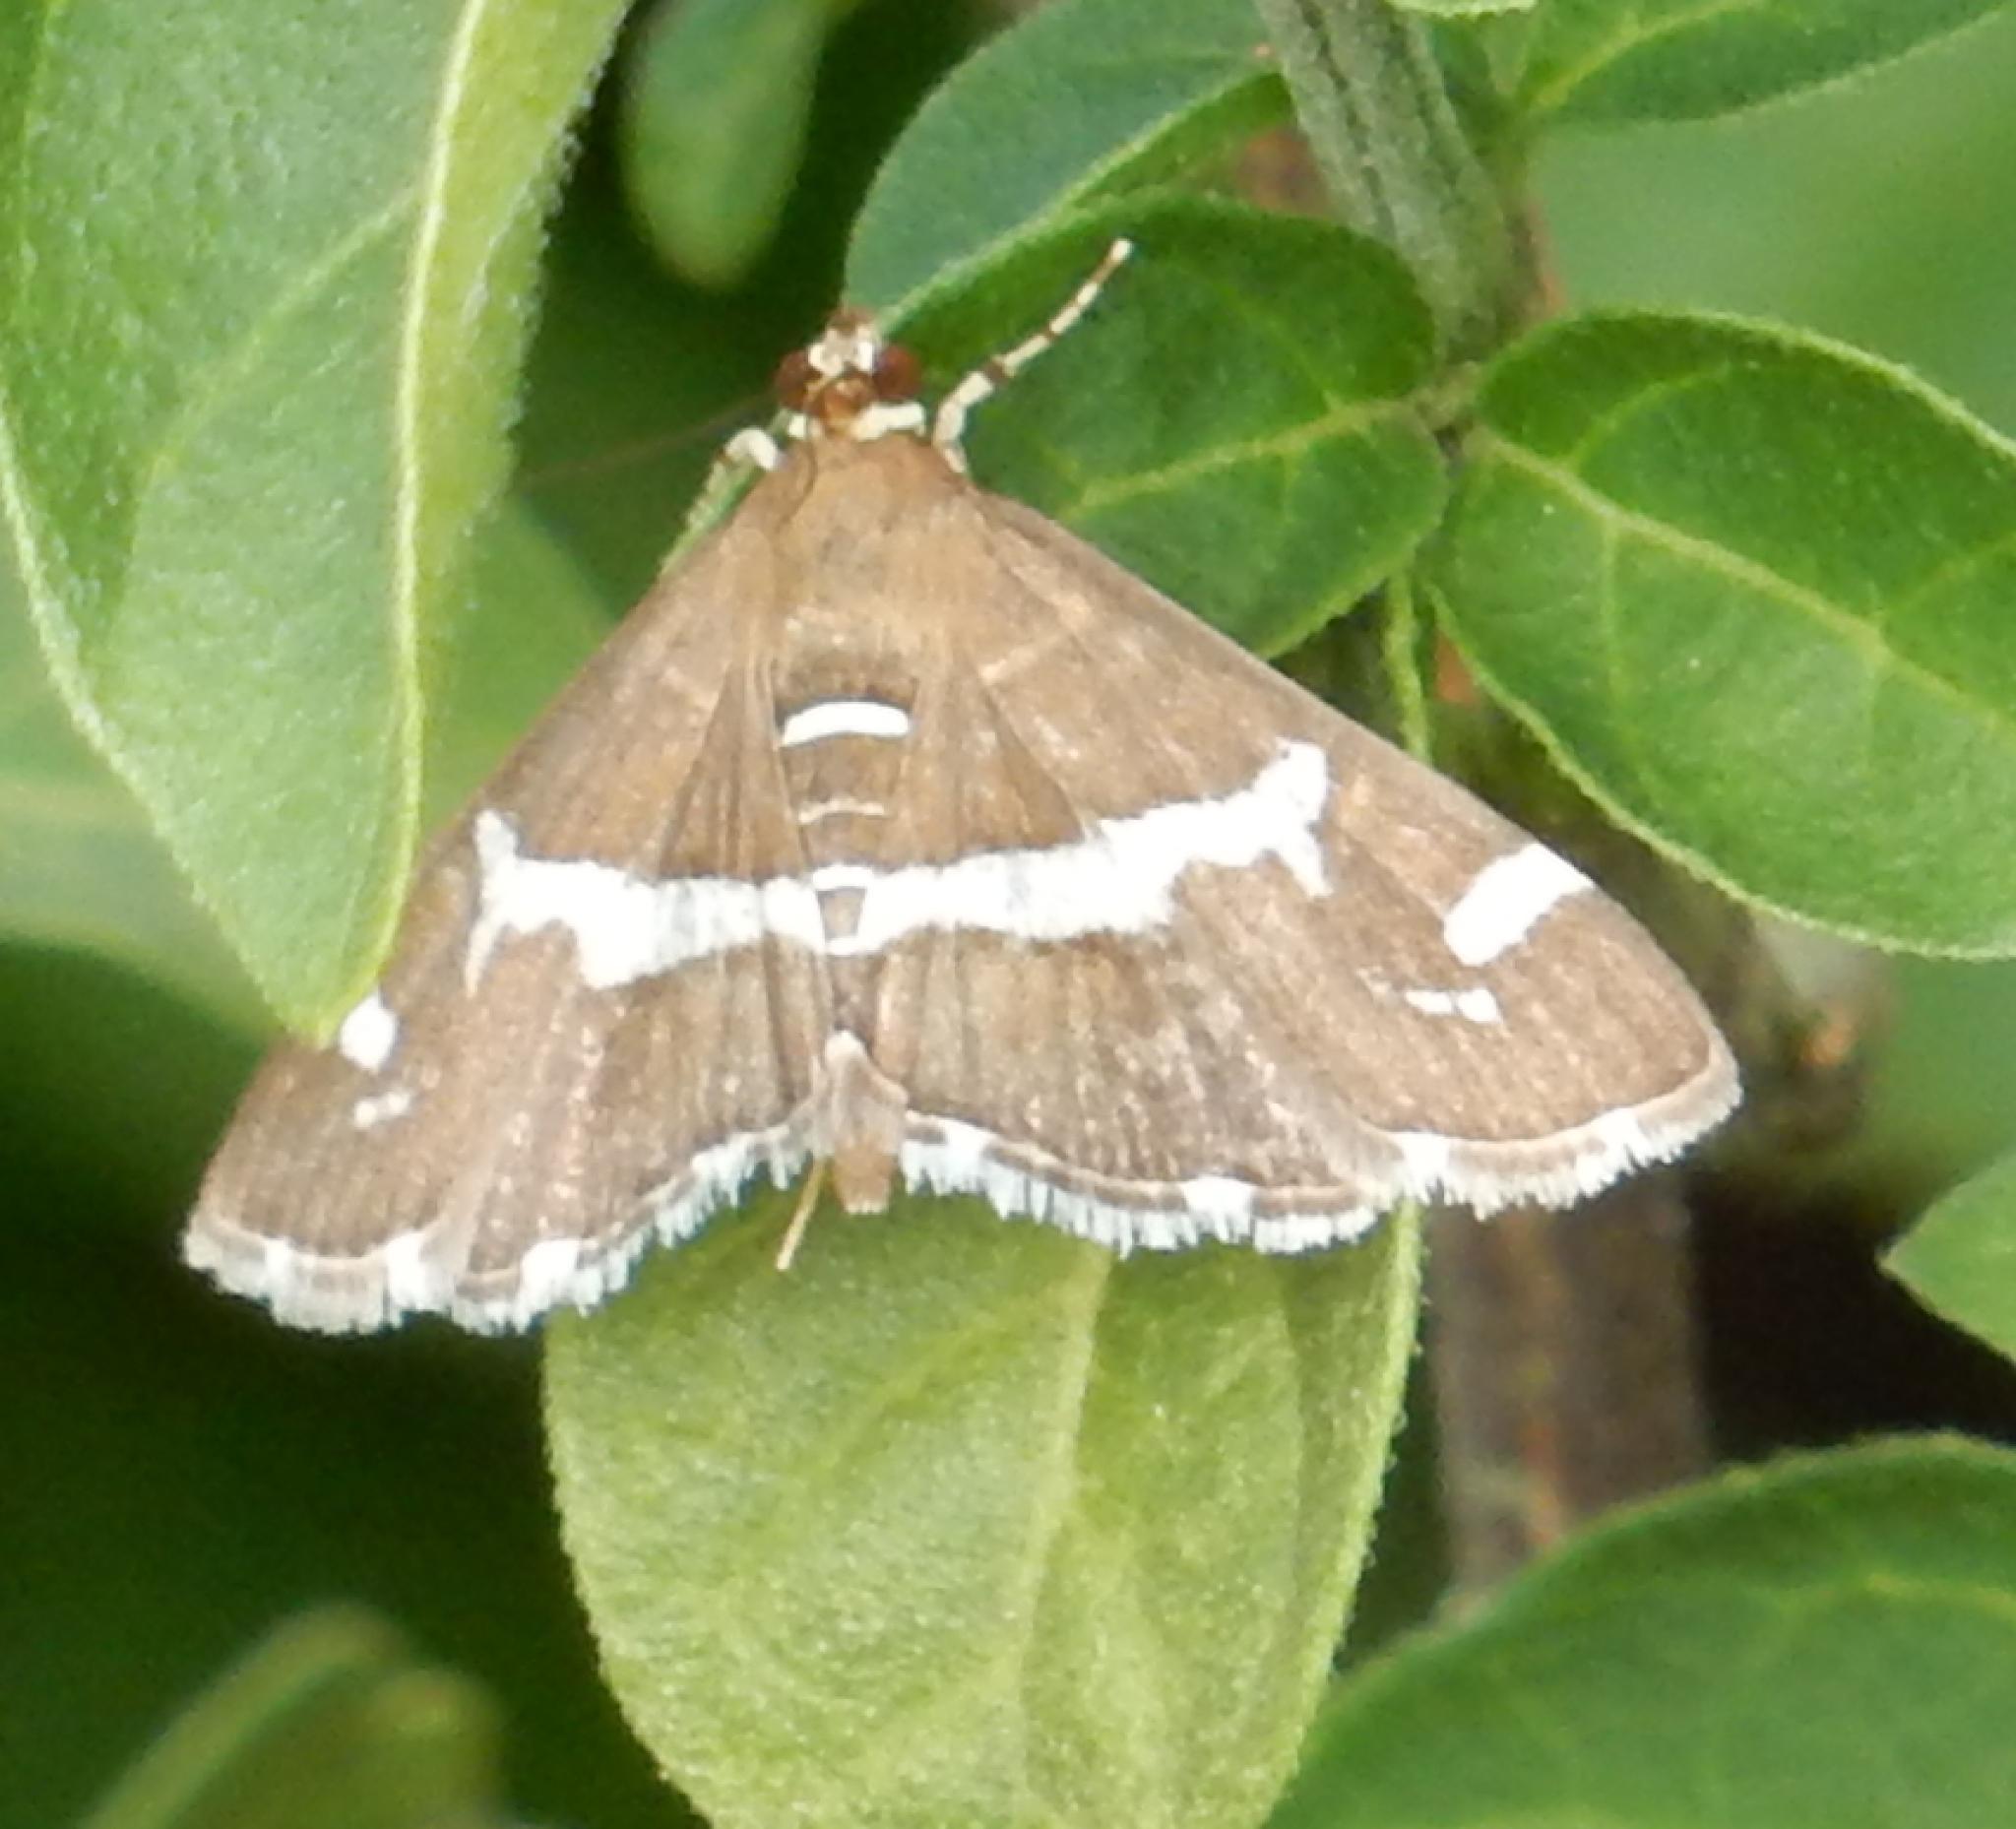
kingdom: Animalia
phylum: Arthropoda
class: Insecta
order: Lepidoptera
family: Crambidae
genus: Spoladea
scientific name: Spoladea recurvalis
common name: Beet webworm moth
